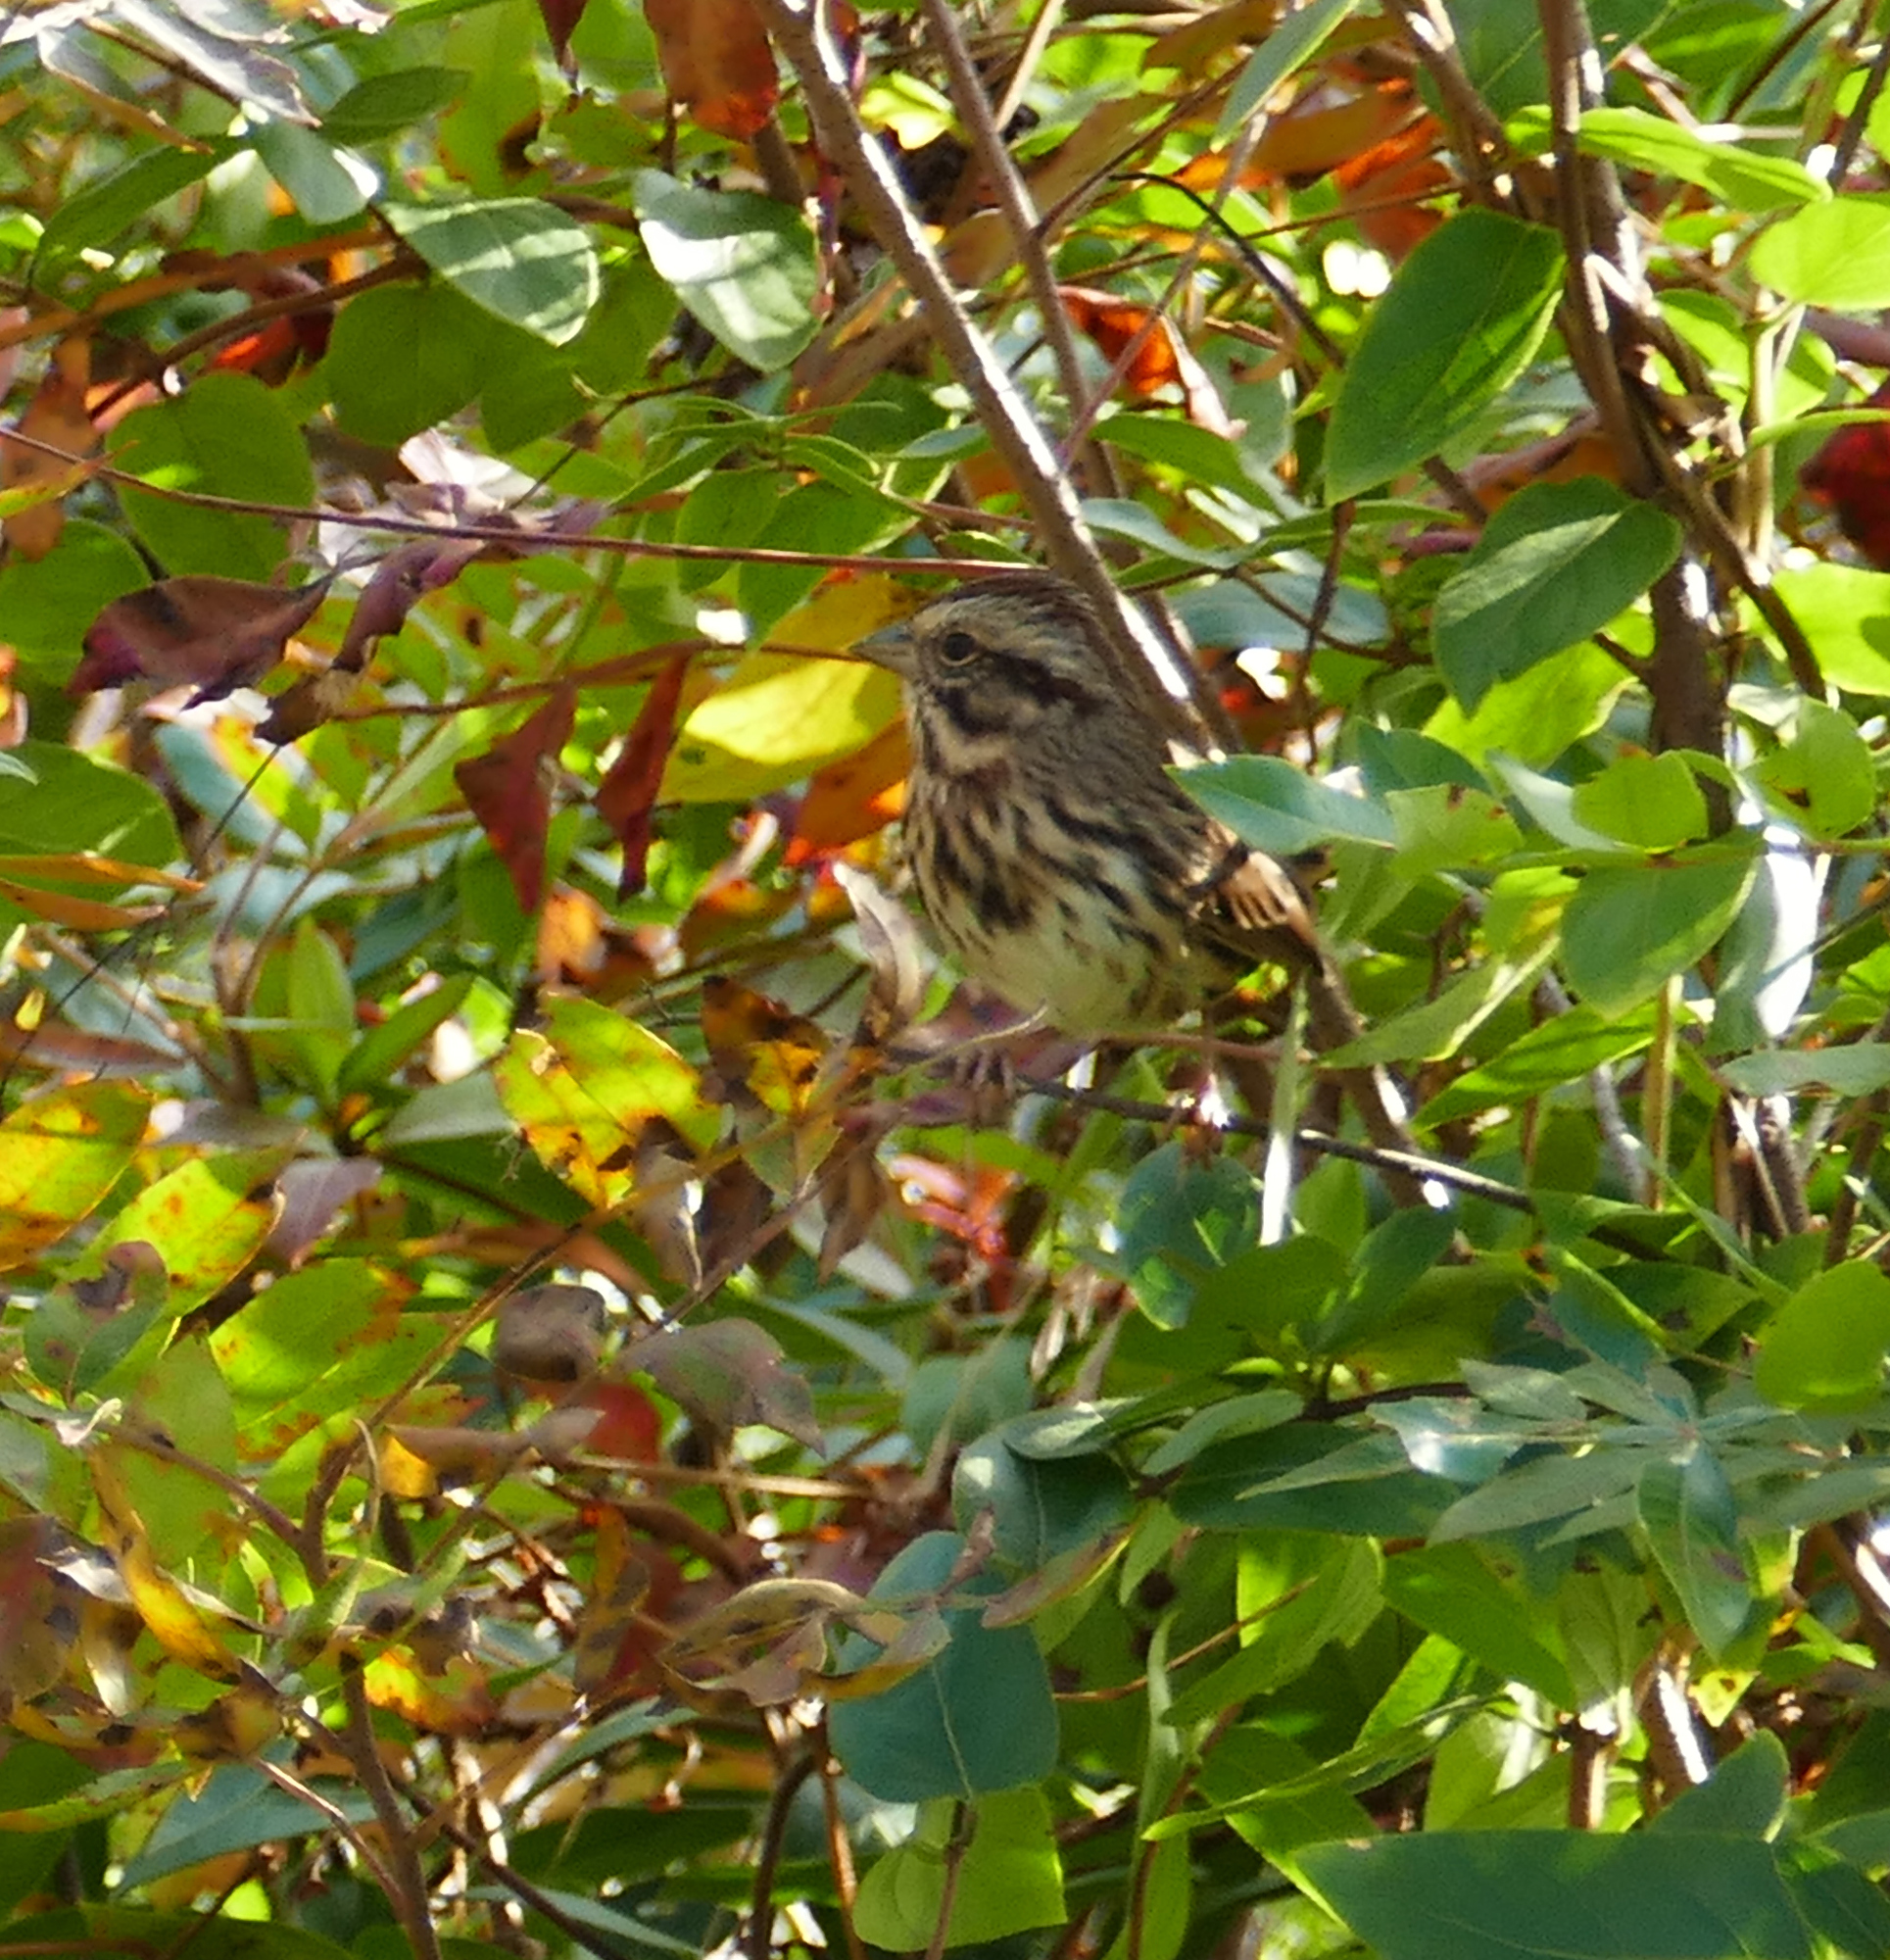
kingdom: Animalia
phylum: Chordata
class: Aves
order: Passeriformes
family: Passerellidae
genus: Melospiza
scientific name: Melospiza melodia
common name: Song sparrow
